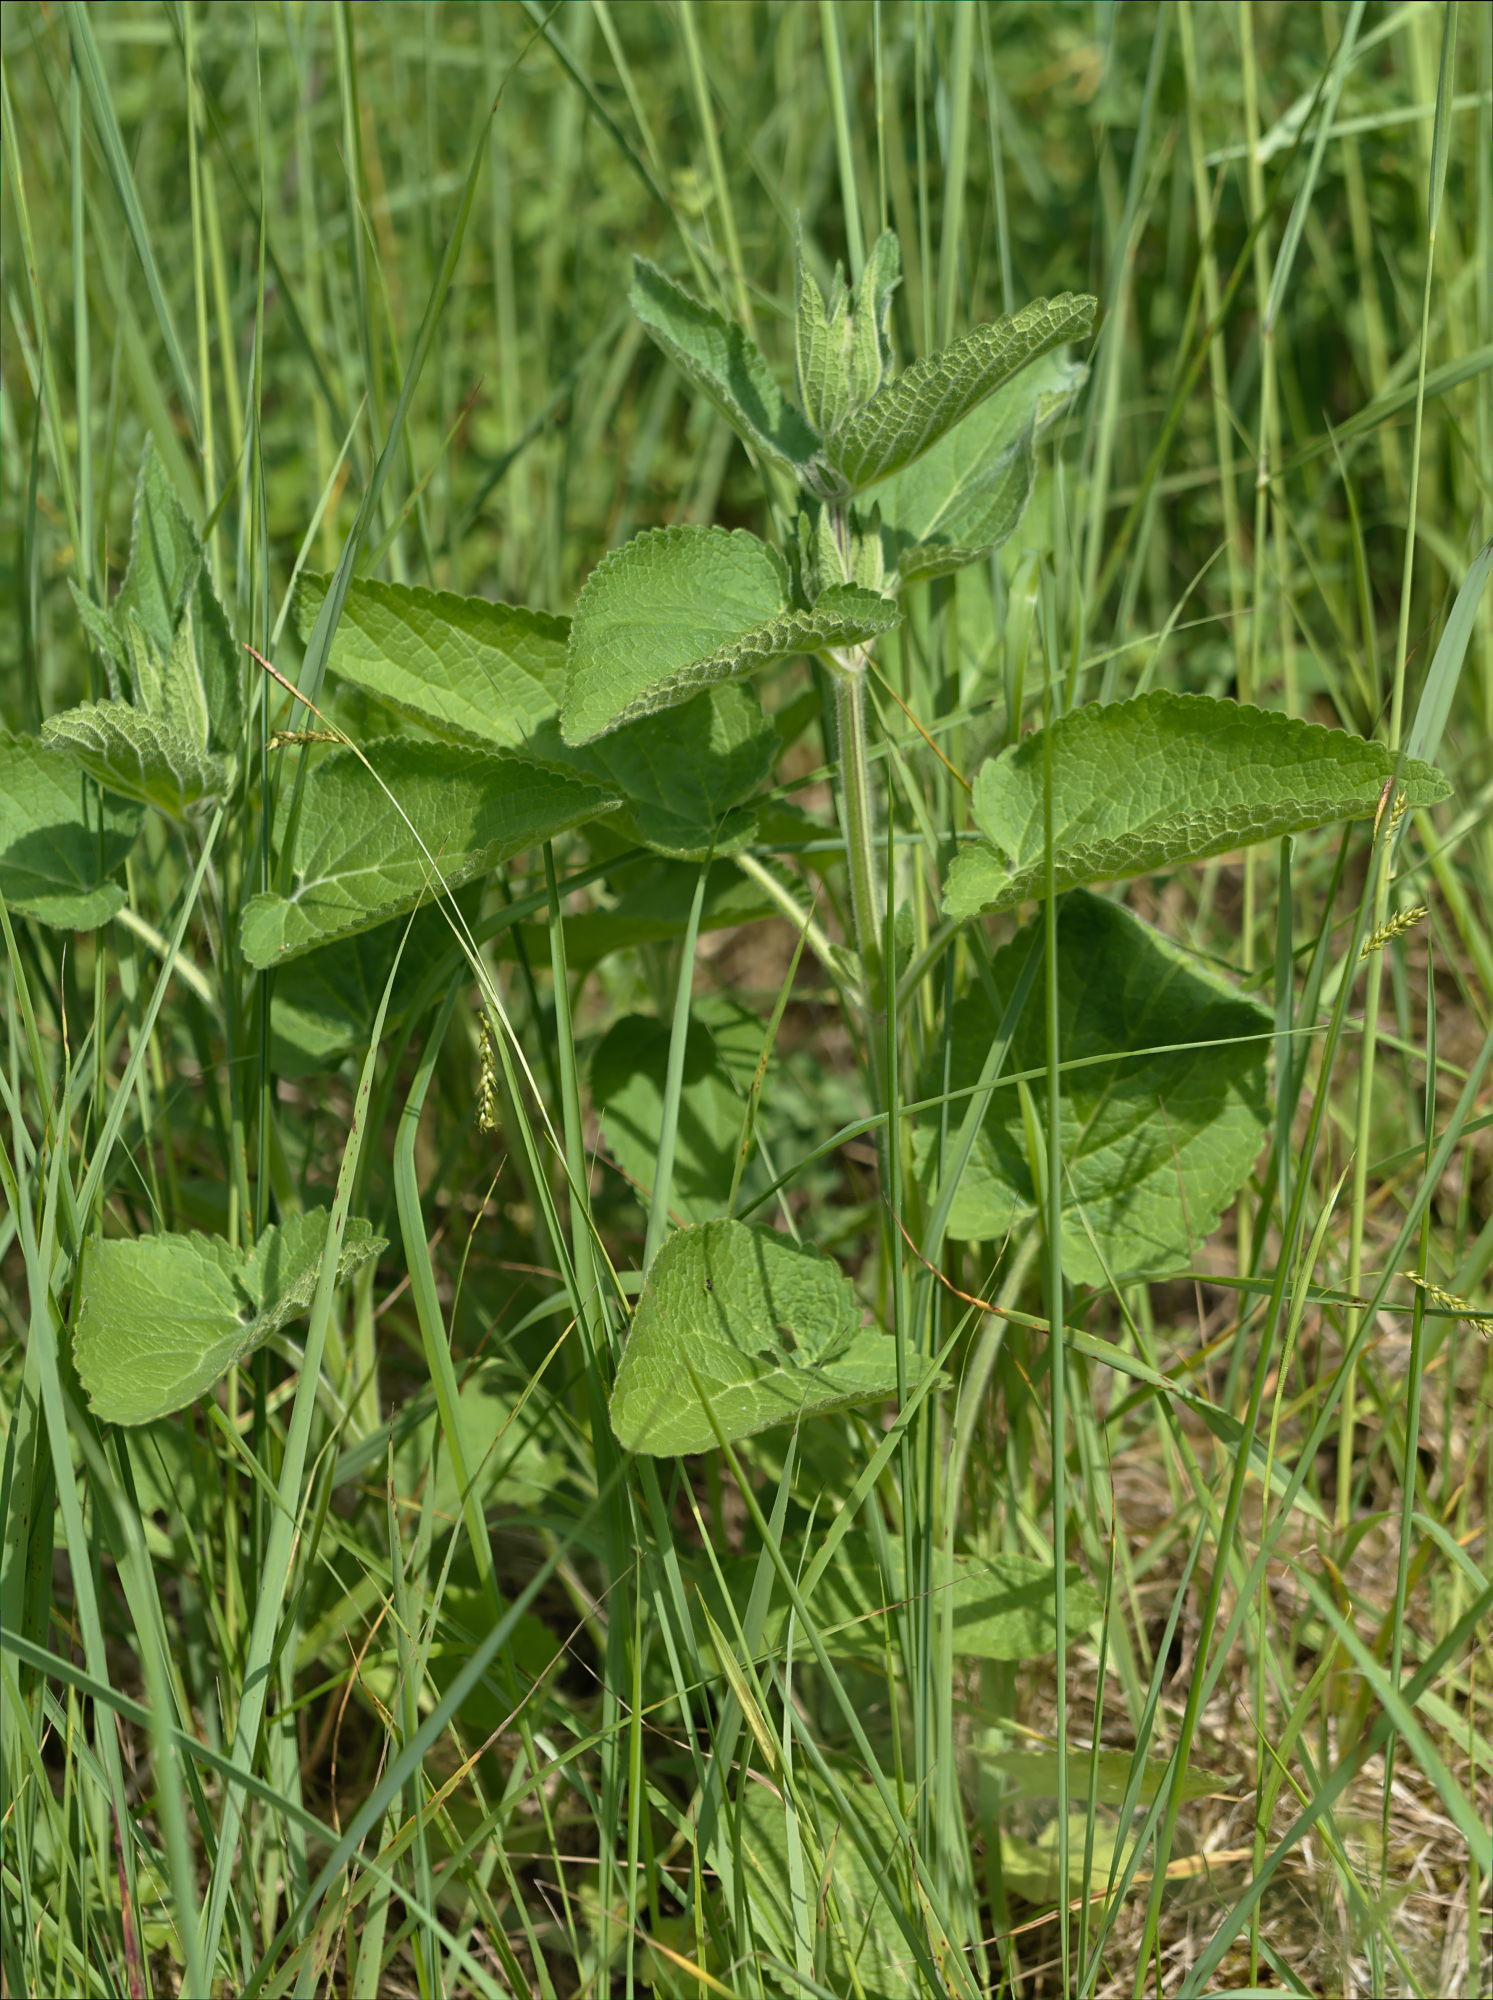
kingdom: Plantae
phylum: Tracheophyta
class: Magnoliopsida
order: Lamiales
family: Lamiaceae
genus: Stachys
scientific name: Stachys alpina
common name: Limestone woundwort
